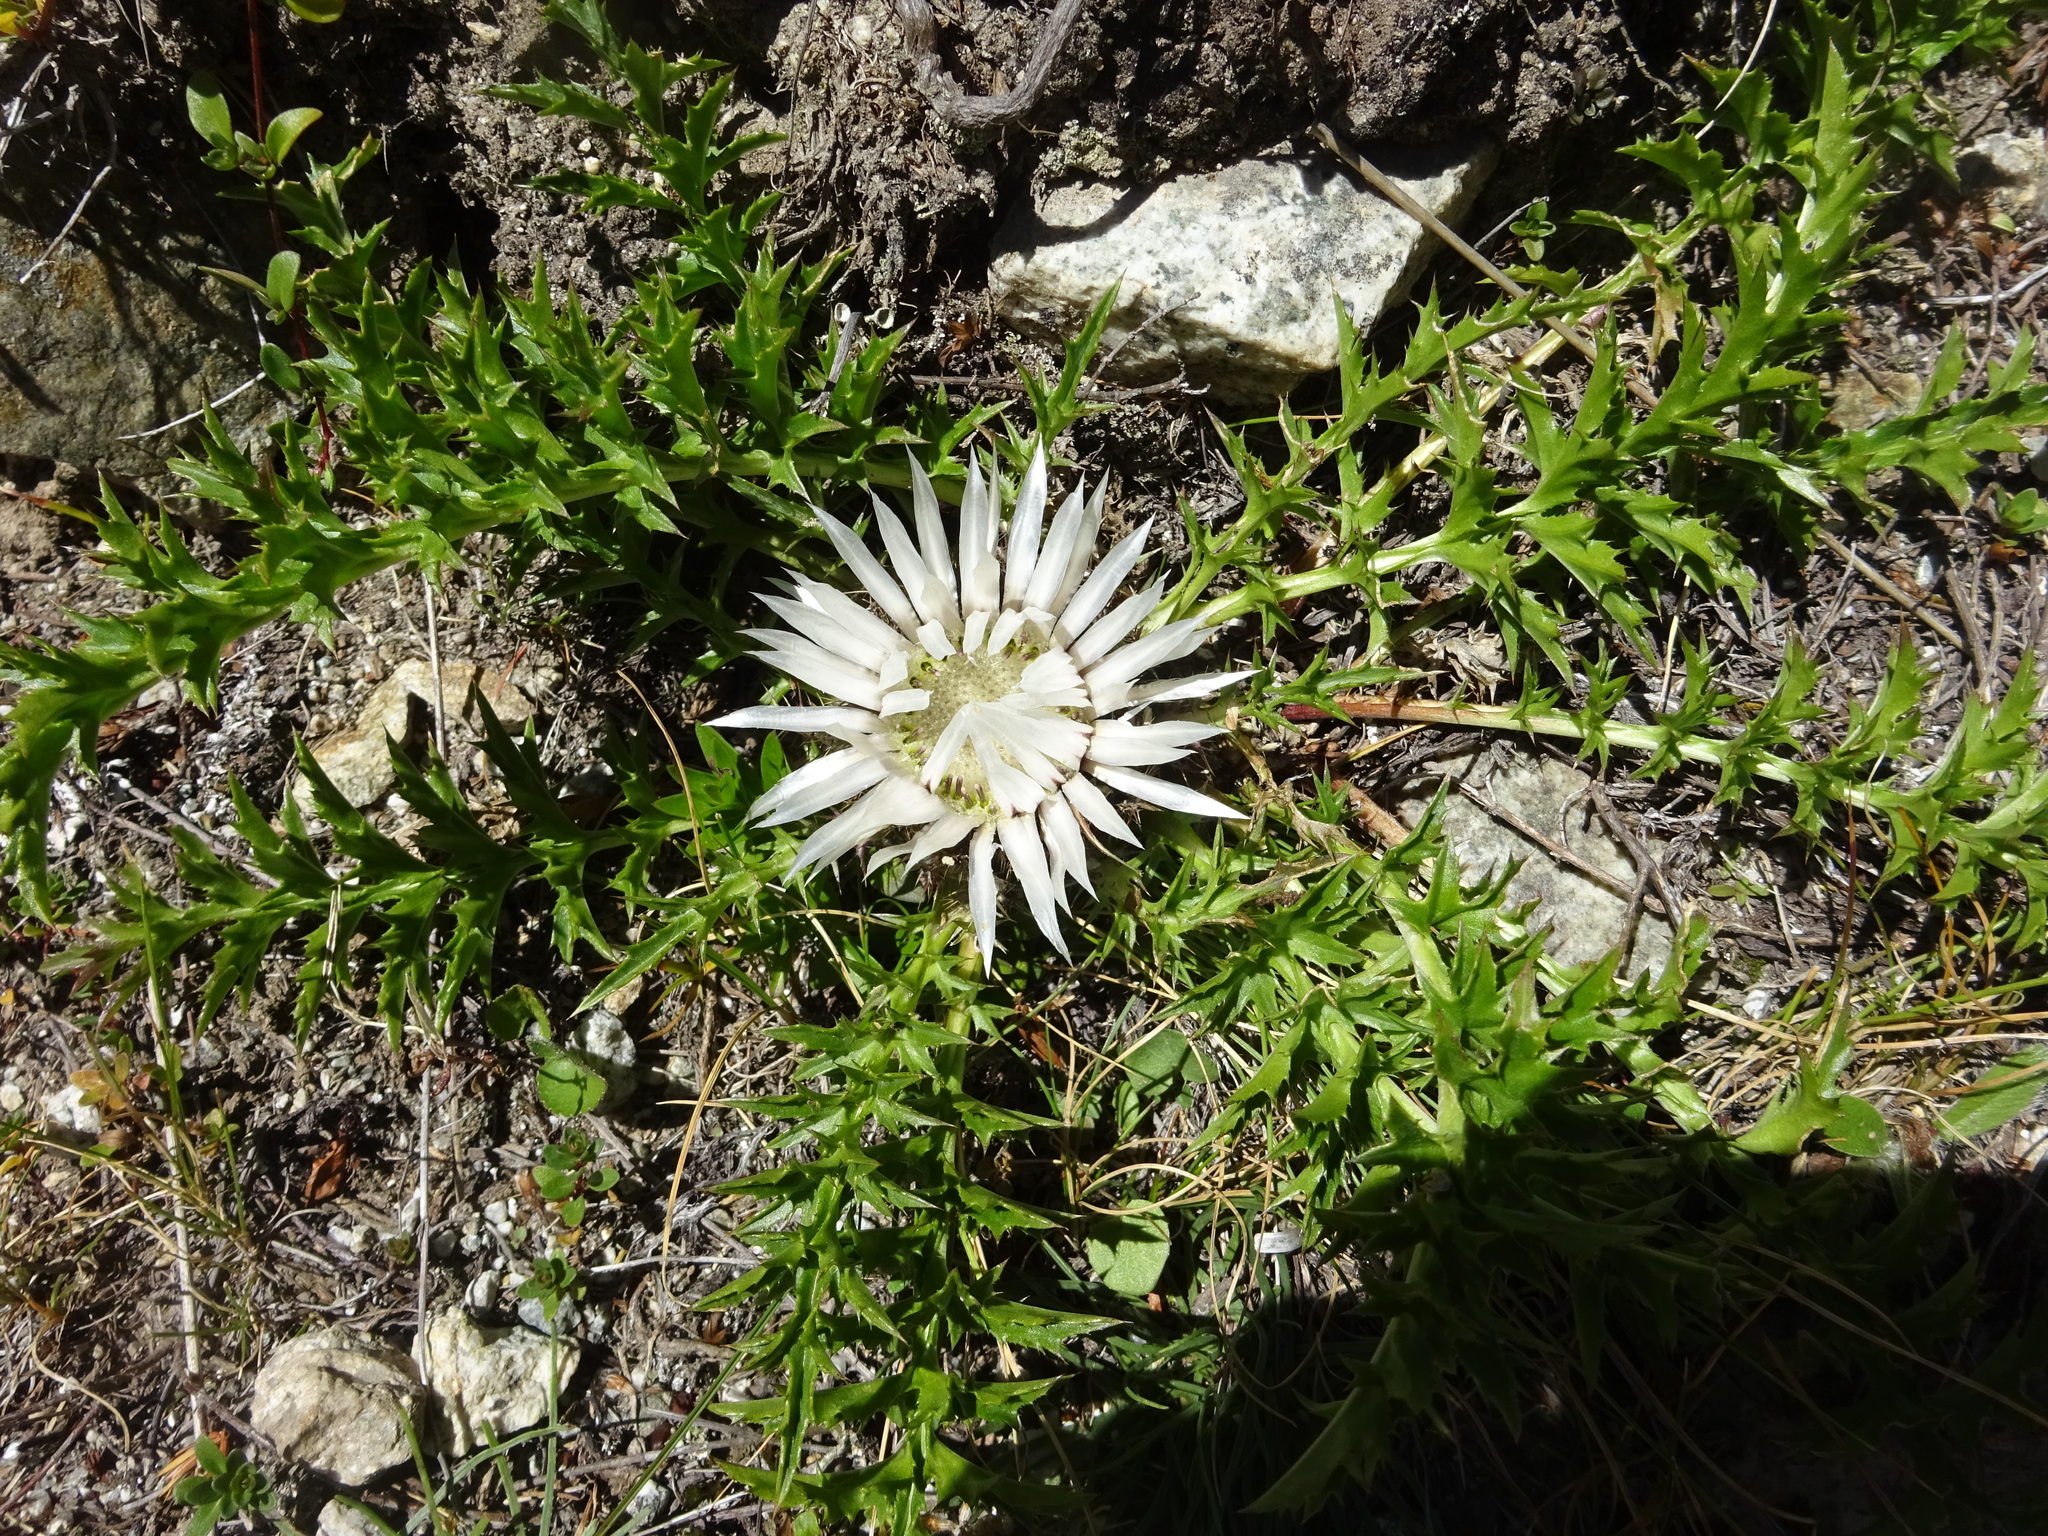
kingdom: Plantae
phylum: Tracheophyta
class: Magnoliopsida
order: Asterales
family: Asteraceae
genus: Carlina
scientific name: Carlina acaulis
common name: Stemless carline thistle
